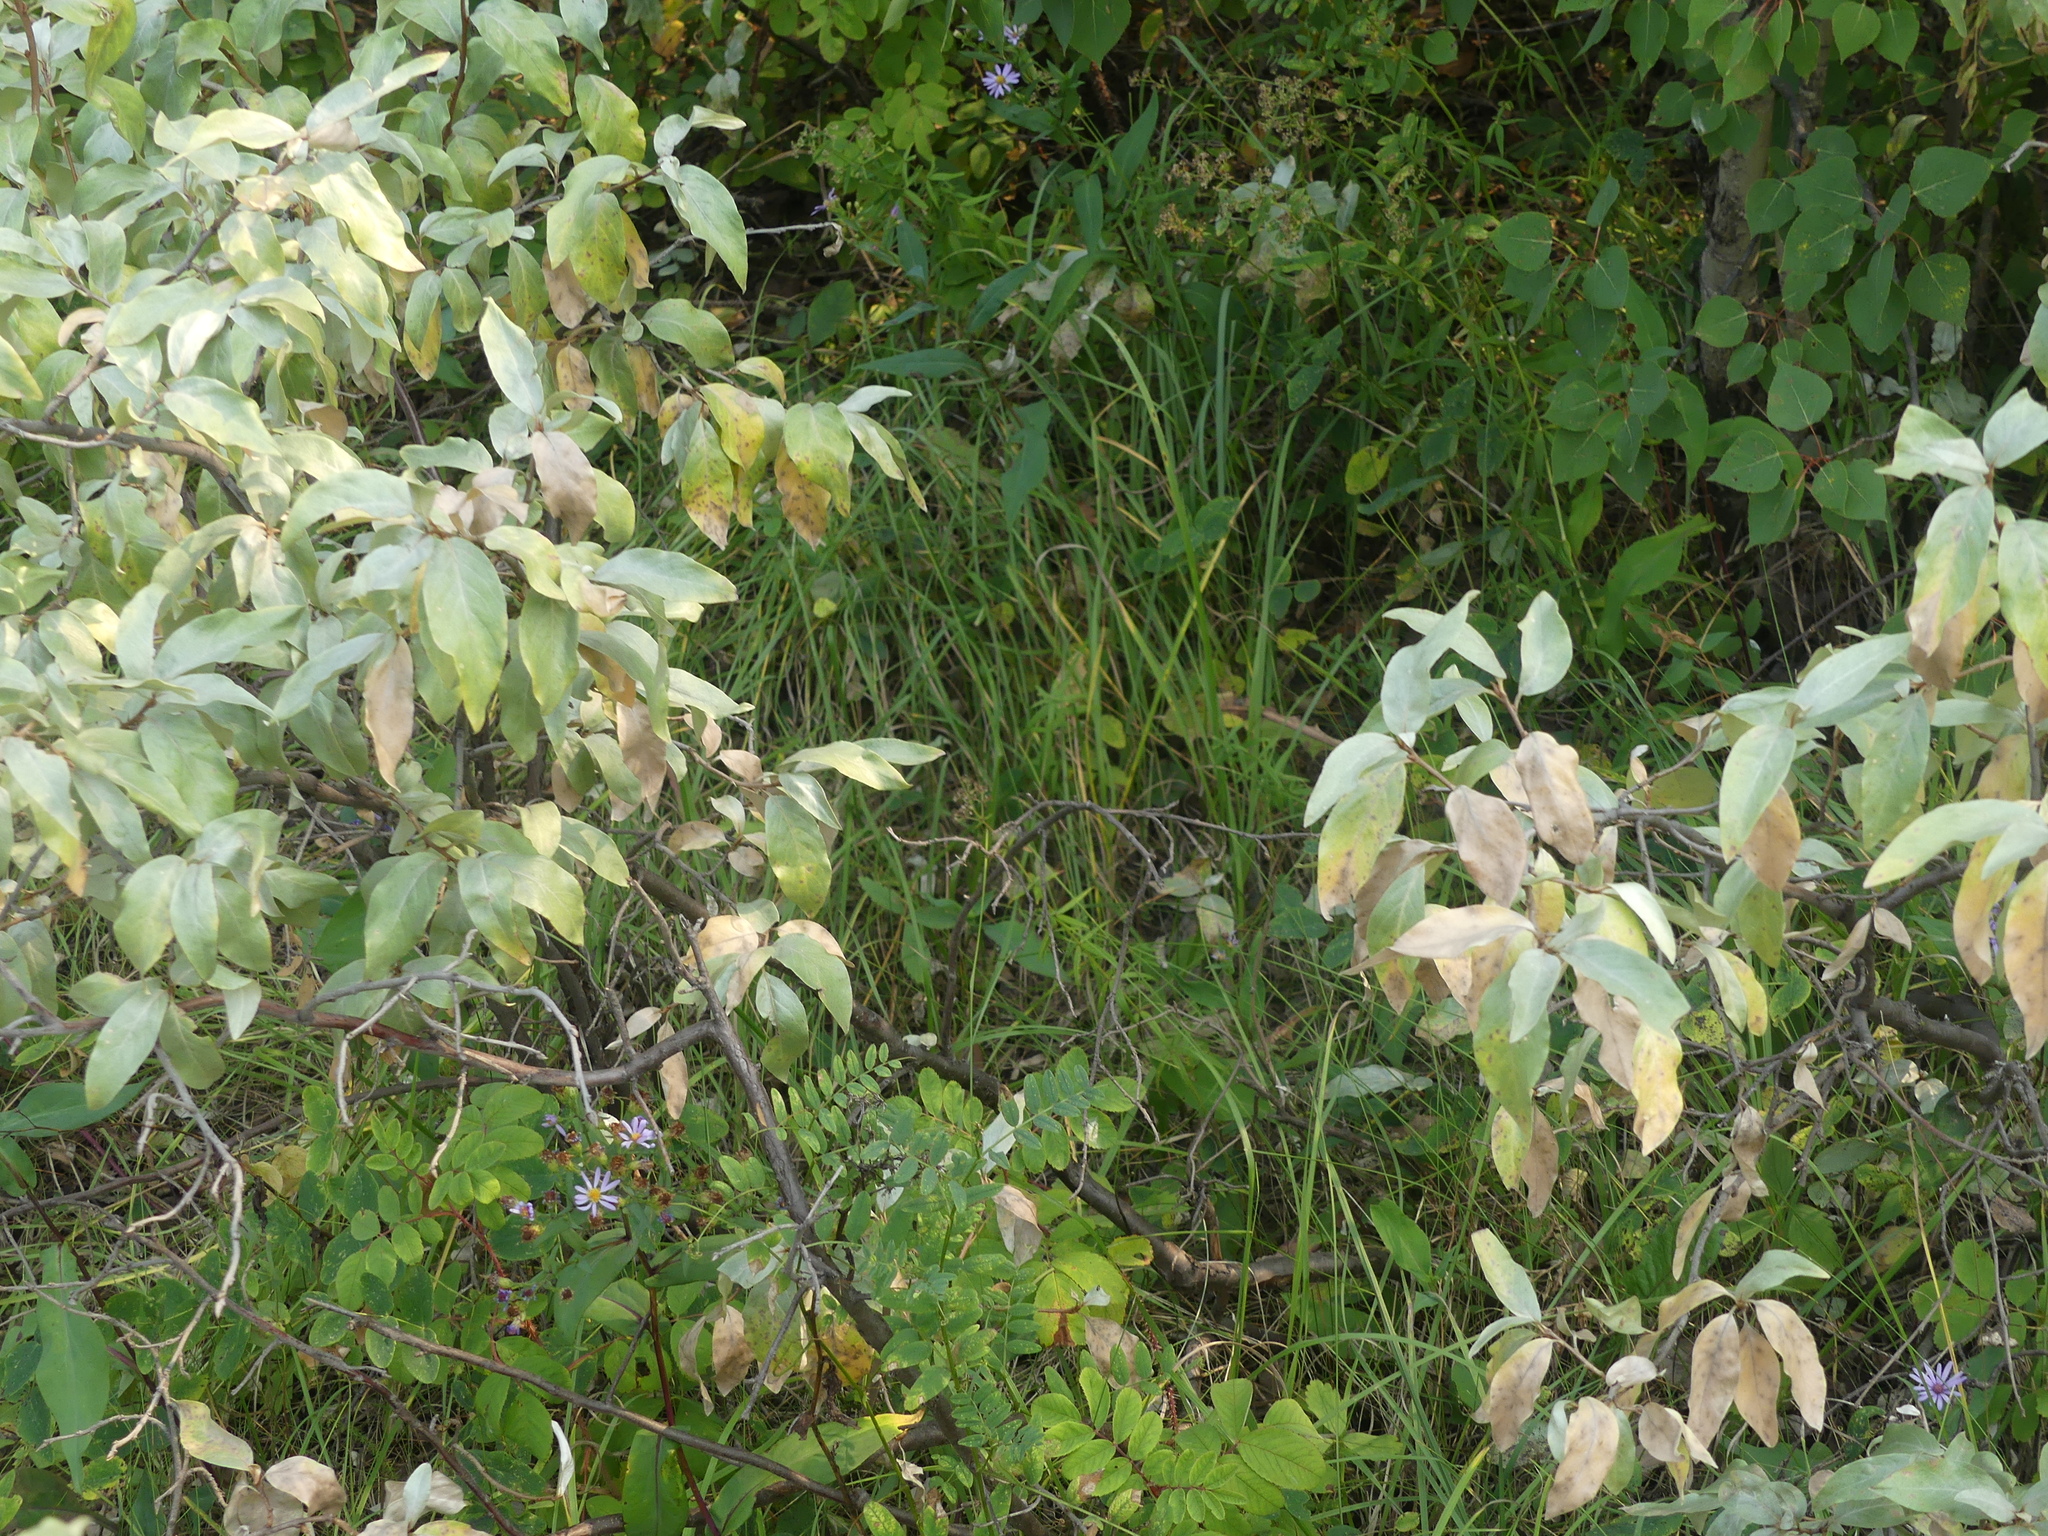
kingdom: Plantae
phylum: Tracheophyta
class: Magnoliopsida
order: Rosales
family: Elaeagnaceae
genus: Elaeagnus
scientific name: Elaeagnus commutata
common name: Silverberry
